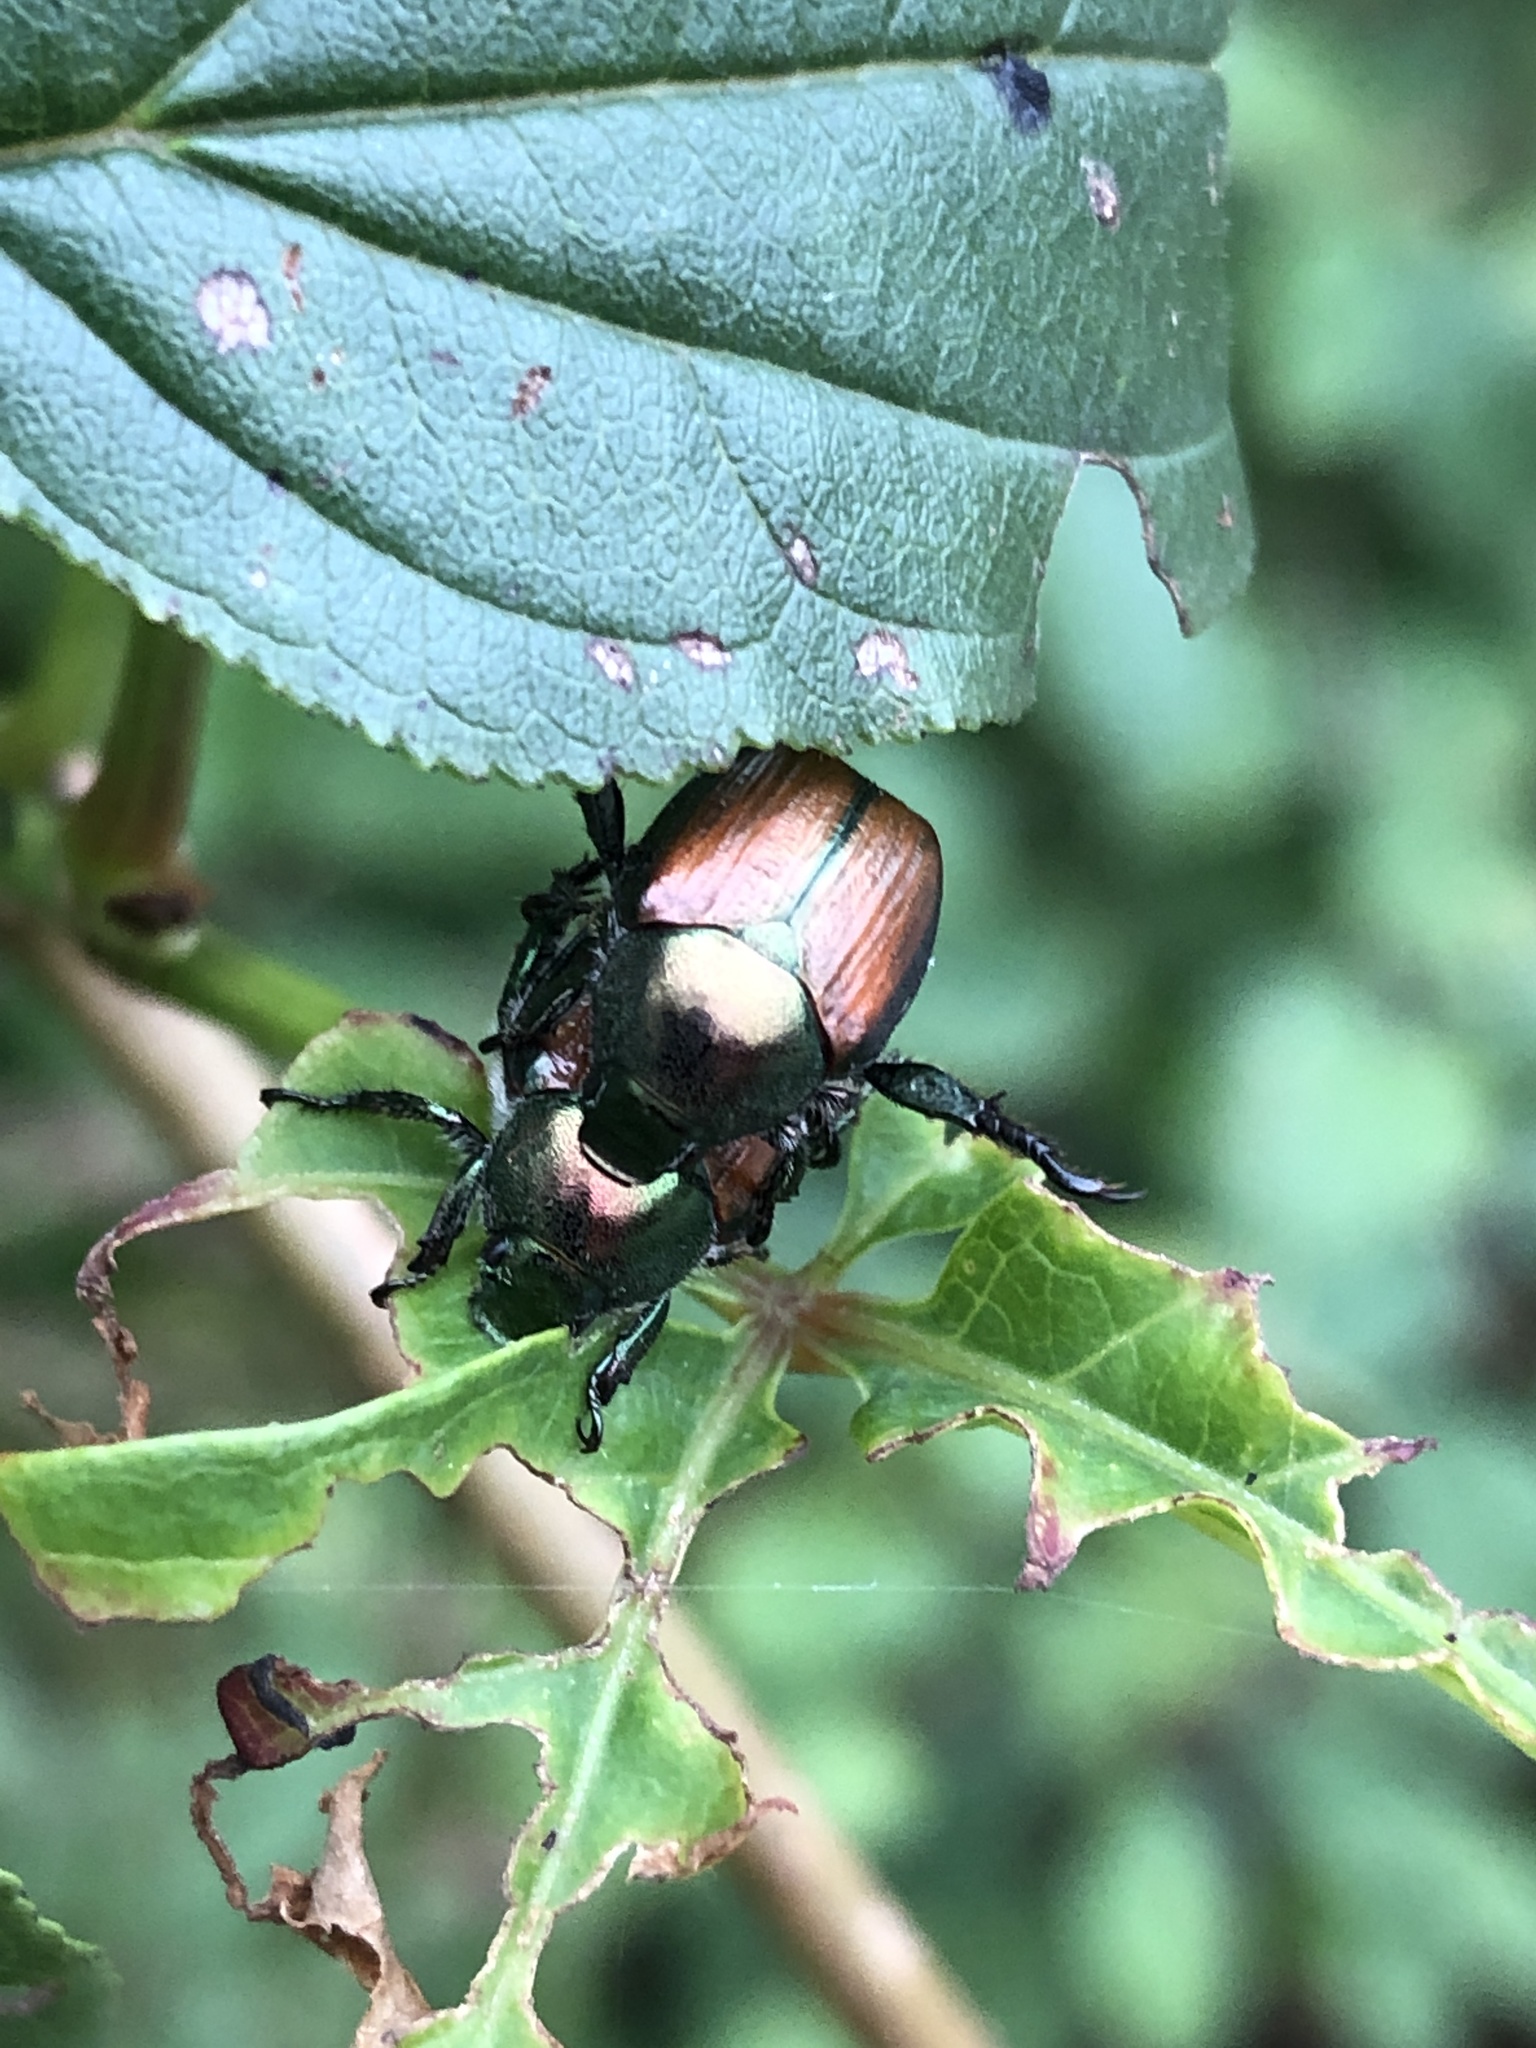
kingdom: Animalia
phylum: Arthropoda
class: Insecta
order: Coleoptera
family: Scarabaeidae
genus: Popillia
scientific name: Popillia japonica
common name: Japanese beetle
